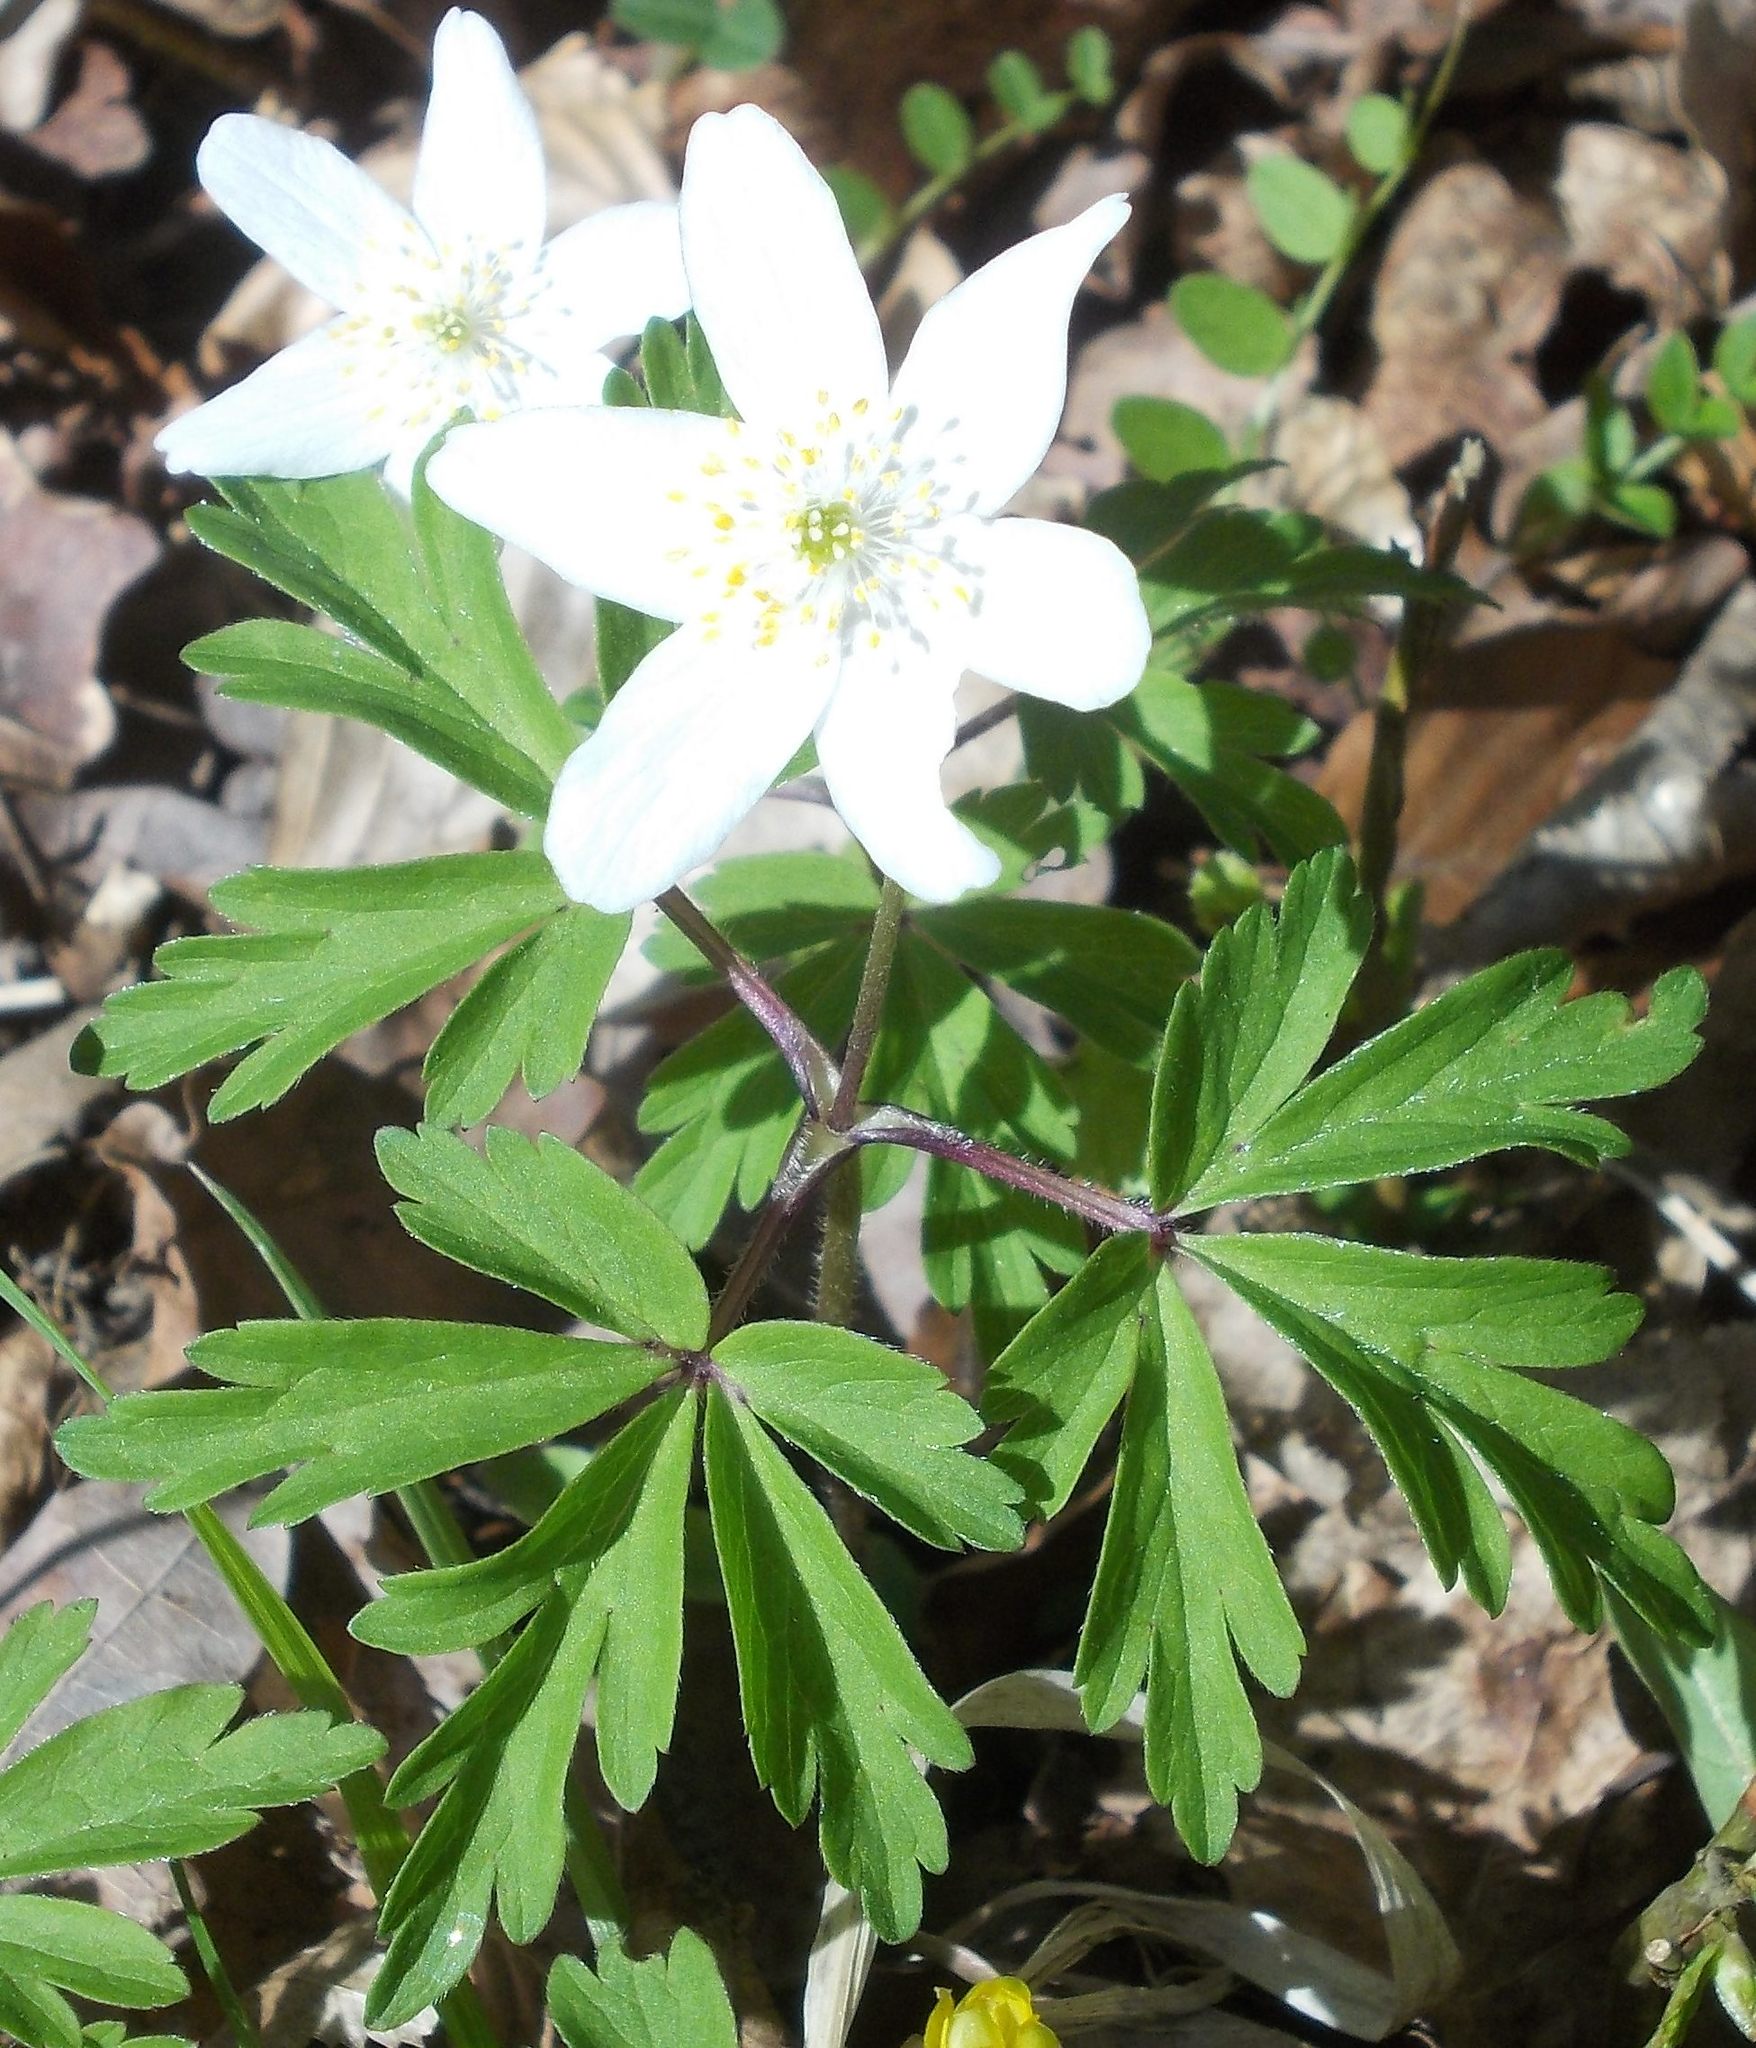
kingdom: Plantae
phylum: Tracheophyta
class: Magnoliopsida
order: Ranunculales
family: Ranunculaceae
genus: Anemone
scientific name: Anemone nemorosa
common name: Wood anemone
